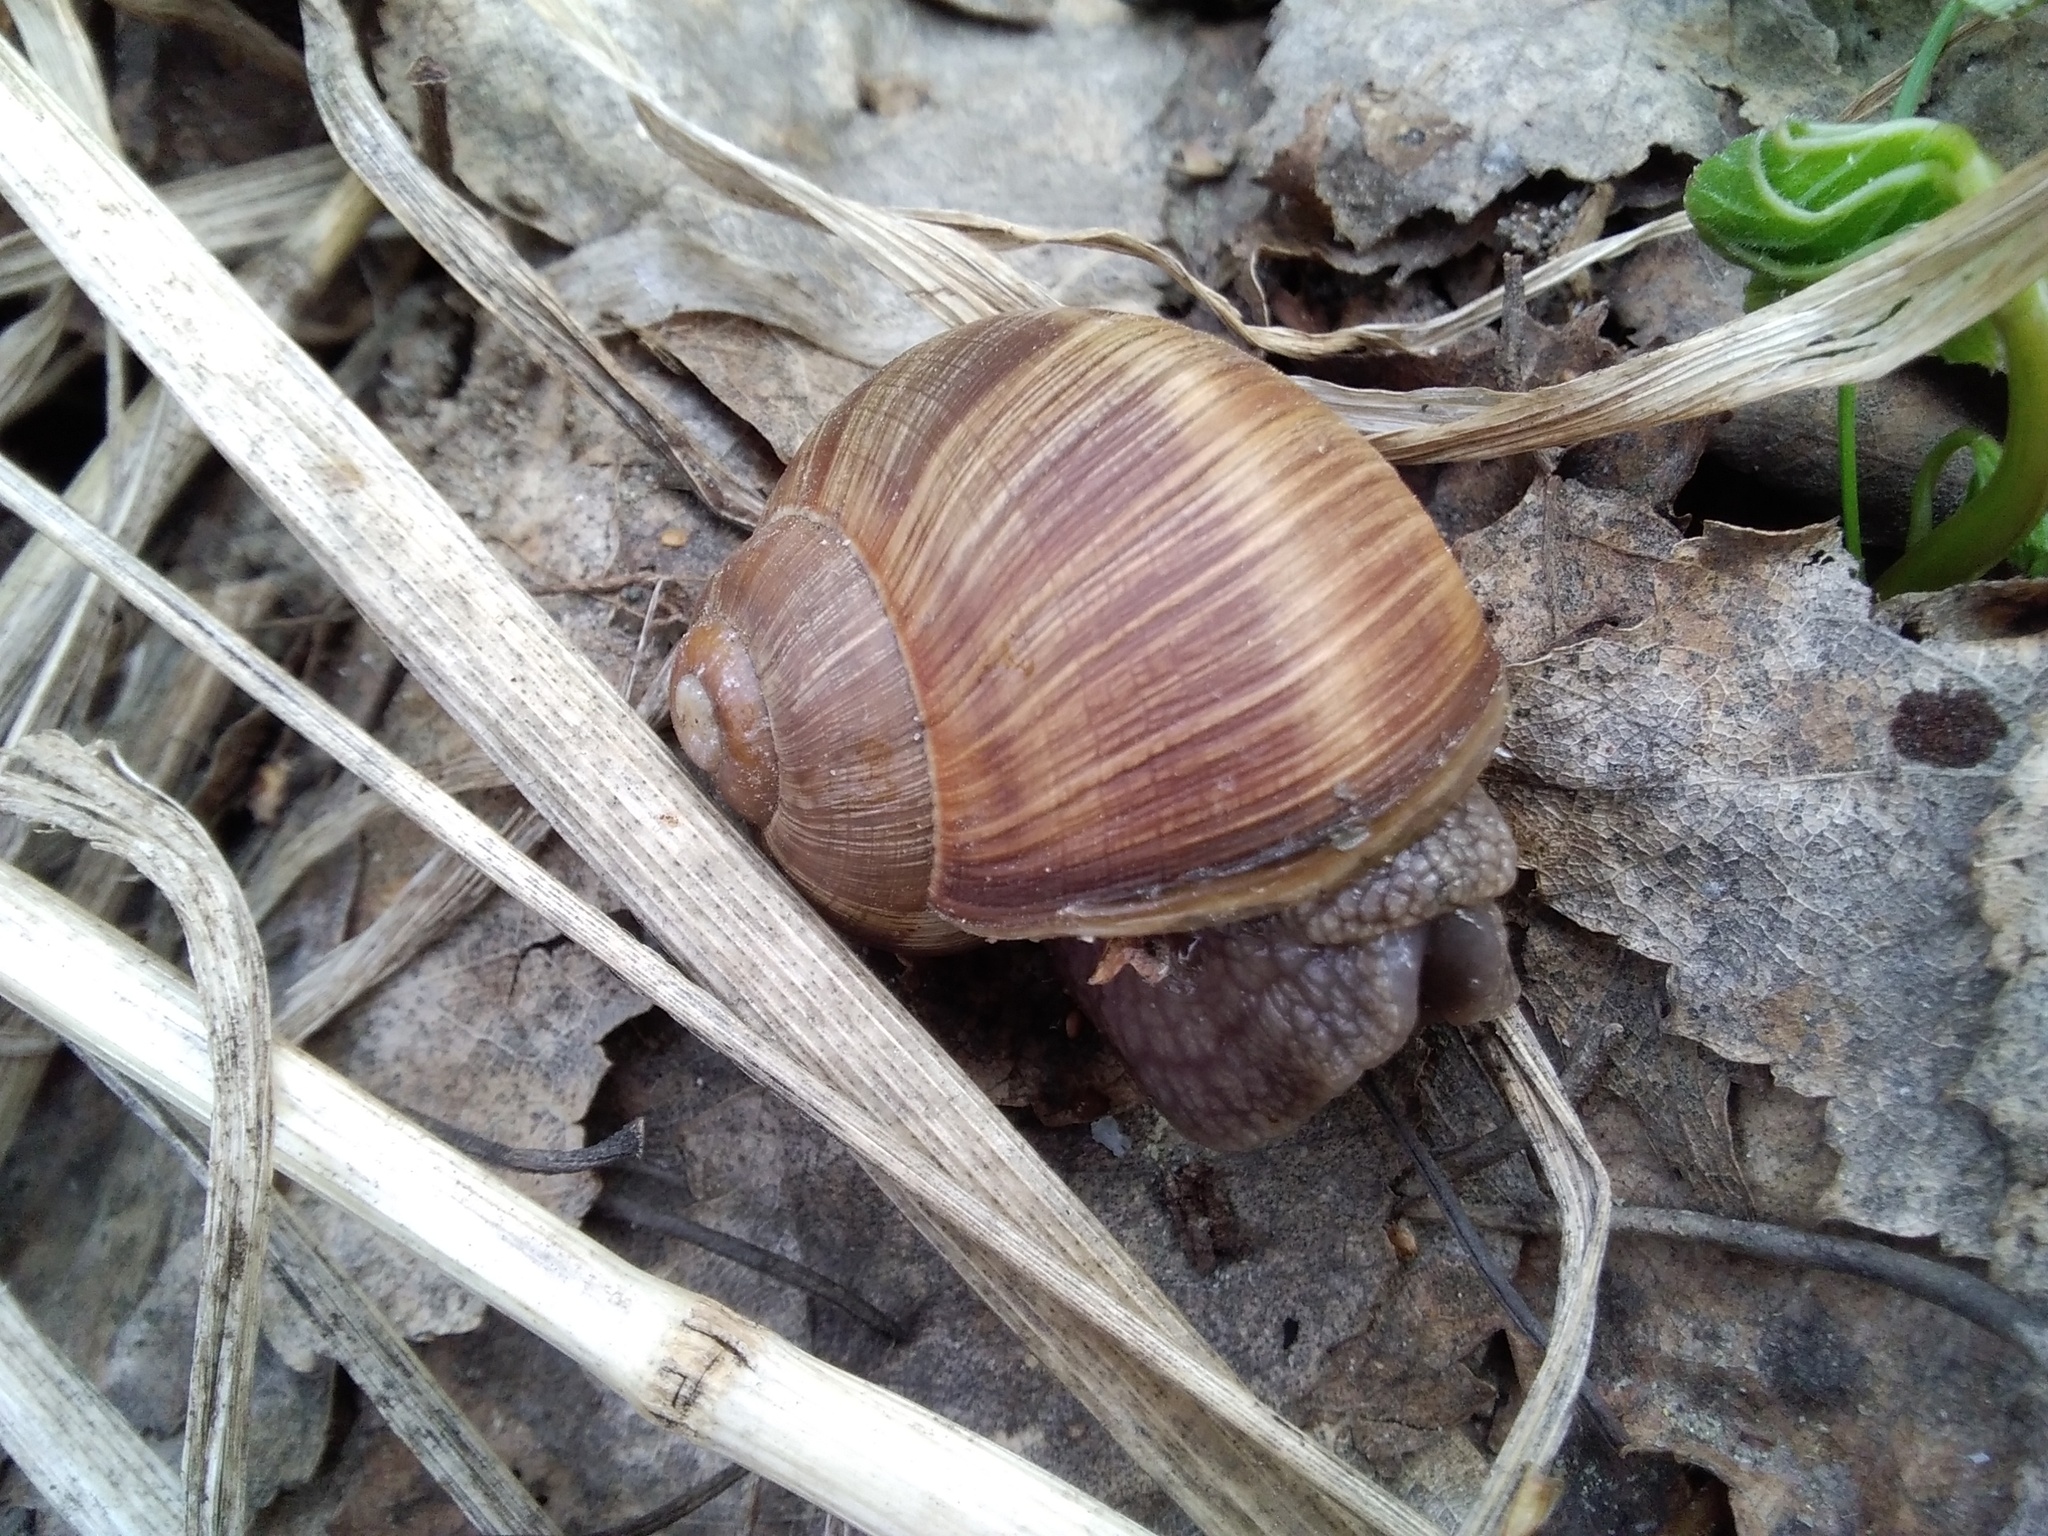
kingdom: Animalia
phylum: Mollusca
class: Gastropoda
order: Stylommatophora
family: Helicidae
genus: Helix
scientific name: Helix pomatia
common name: Roman snail
